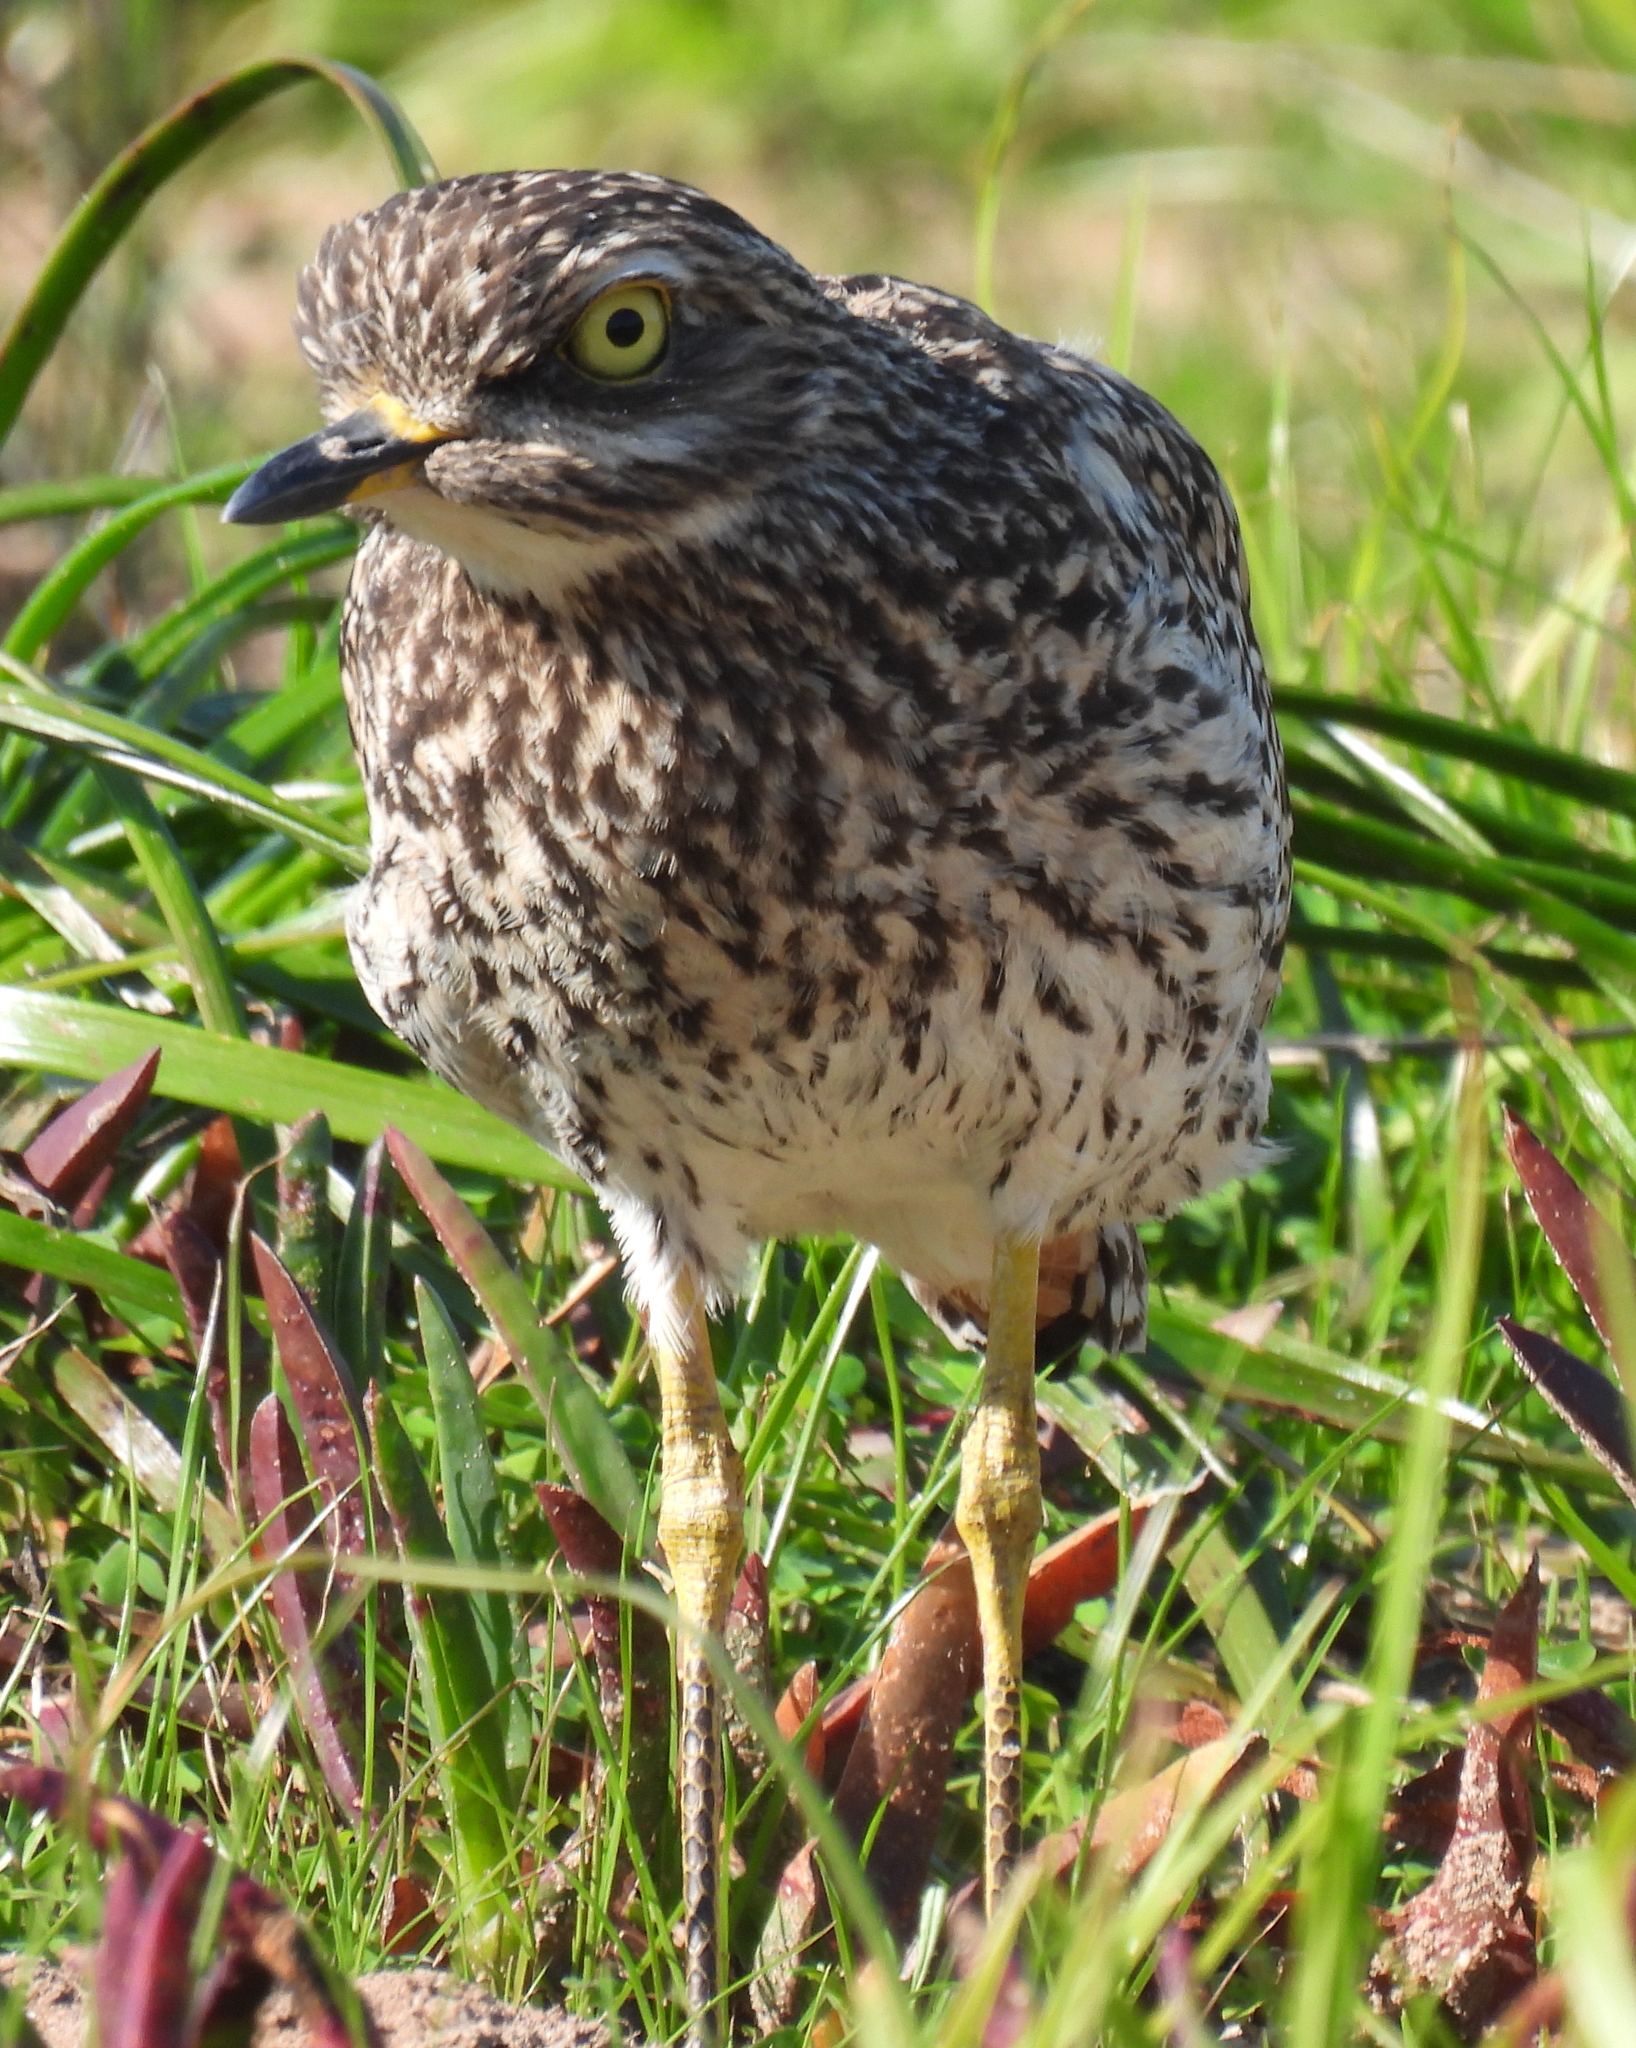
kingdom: Animalia
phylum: Chordata
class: Aves
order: Charadriiformes
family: Burhinidae
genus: Burhinus
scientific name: Burhinus capensis
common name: Spotted thick-knee
